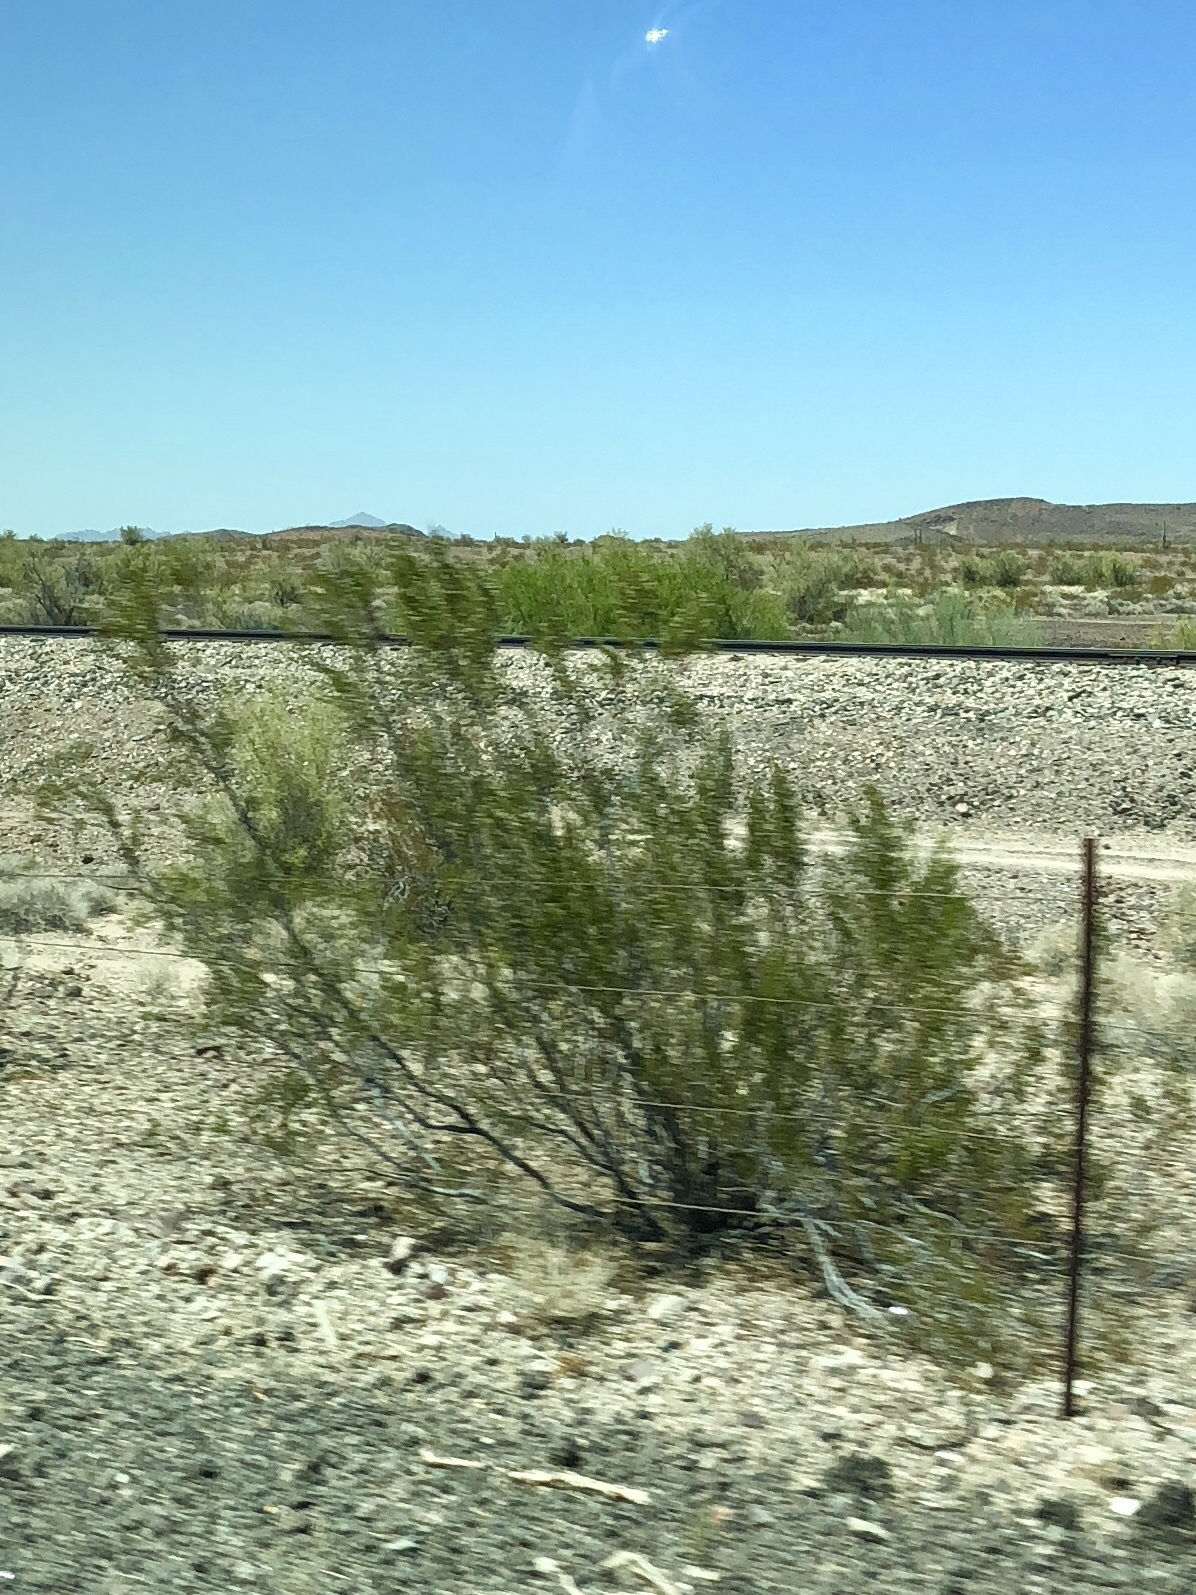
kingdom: Plantae
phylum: Tracheophyta
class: Magnoliopsida
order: Zygophyllales
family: Zygophyllaceae
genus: Larrea
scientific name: Larrea tridentata
